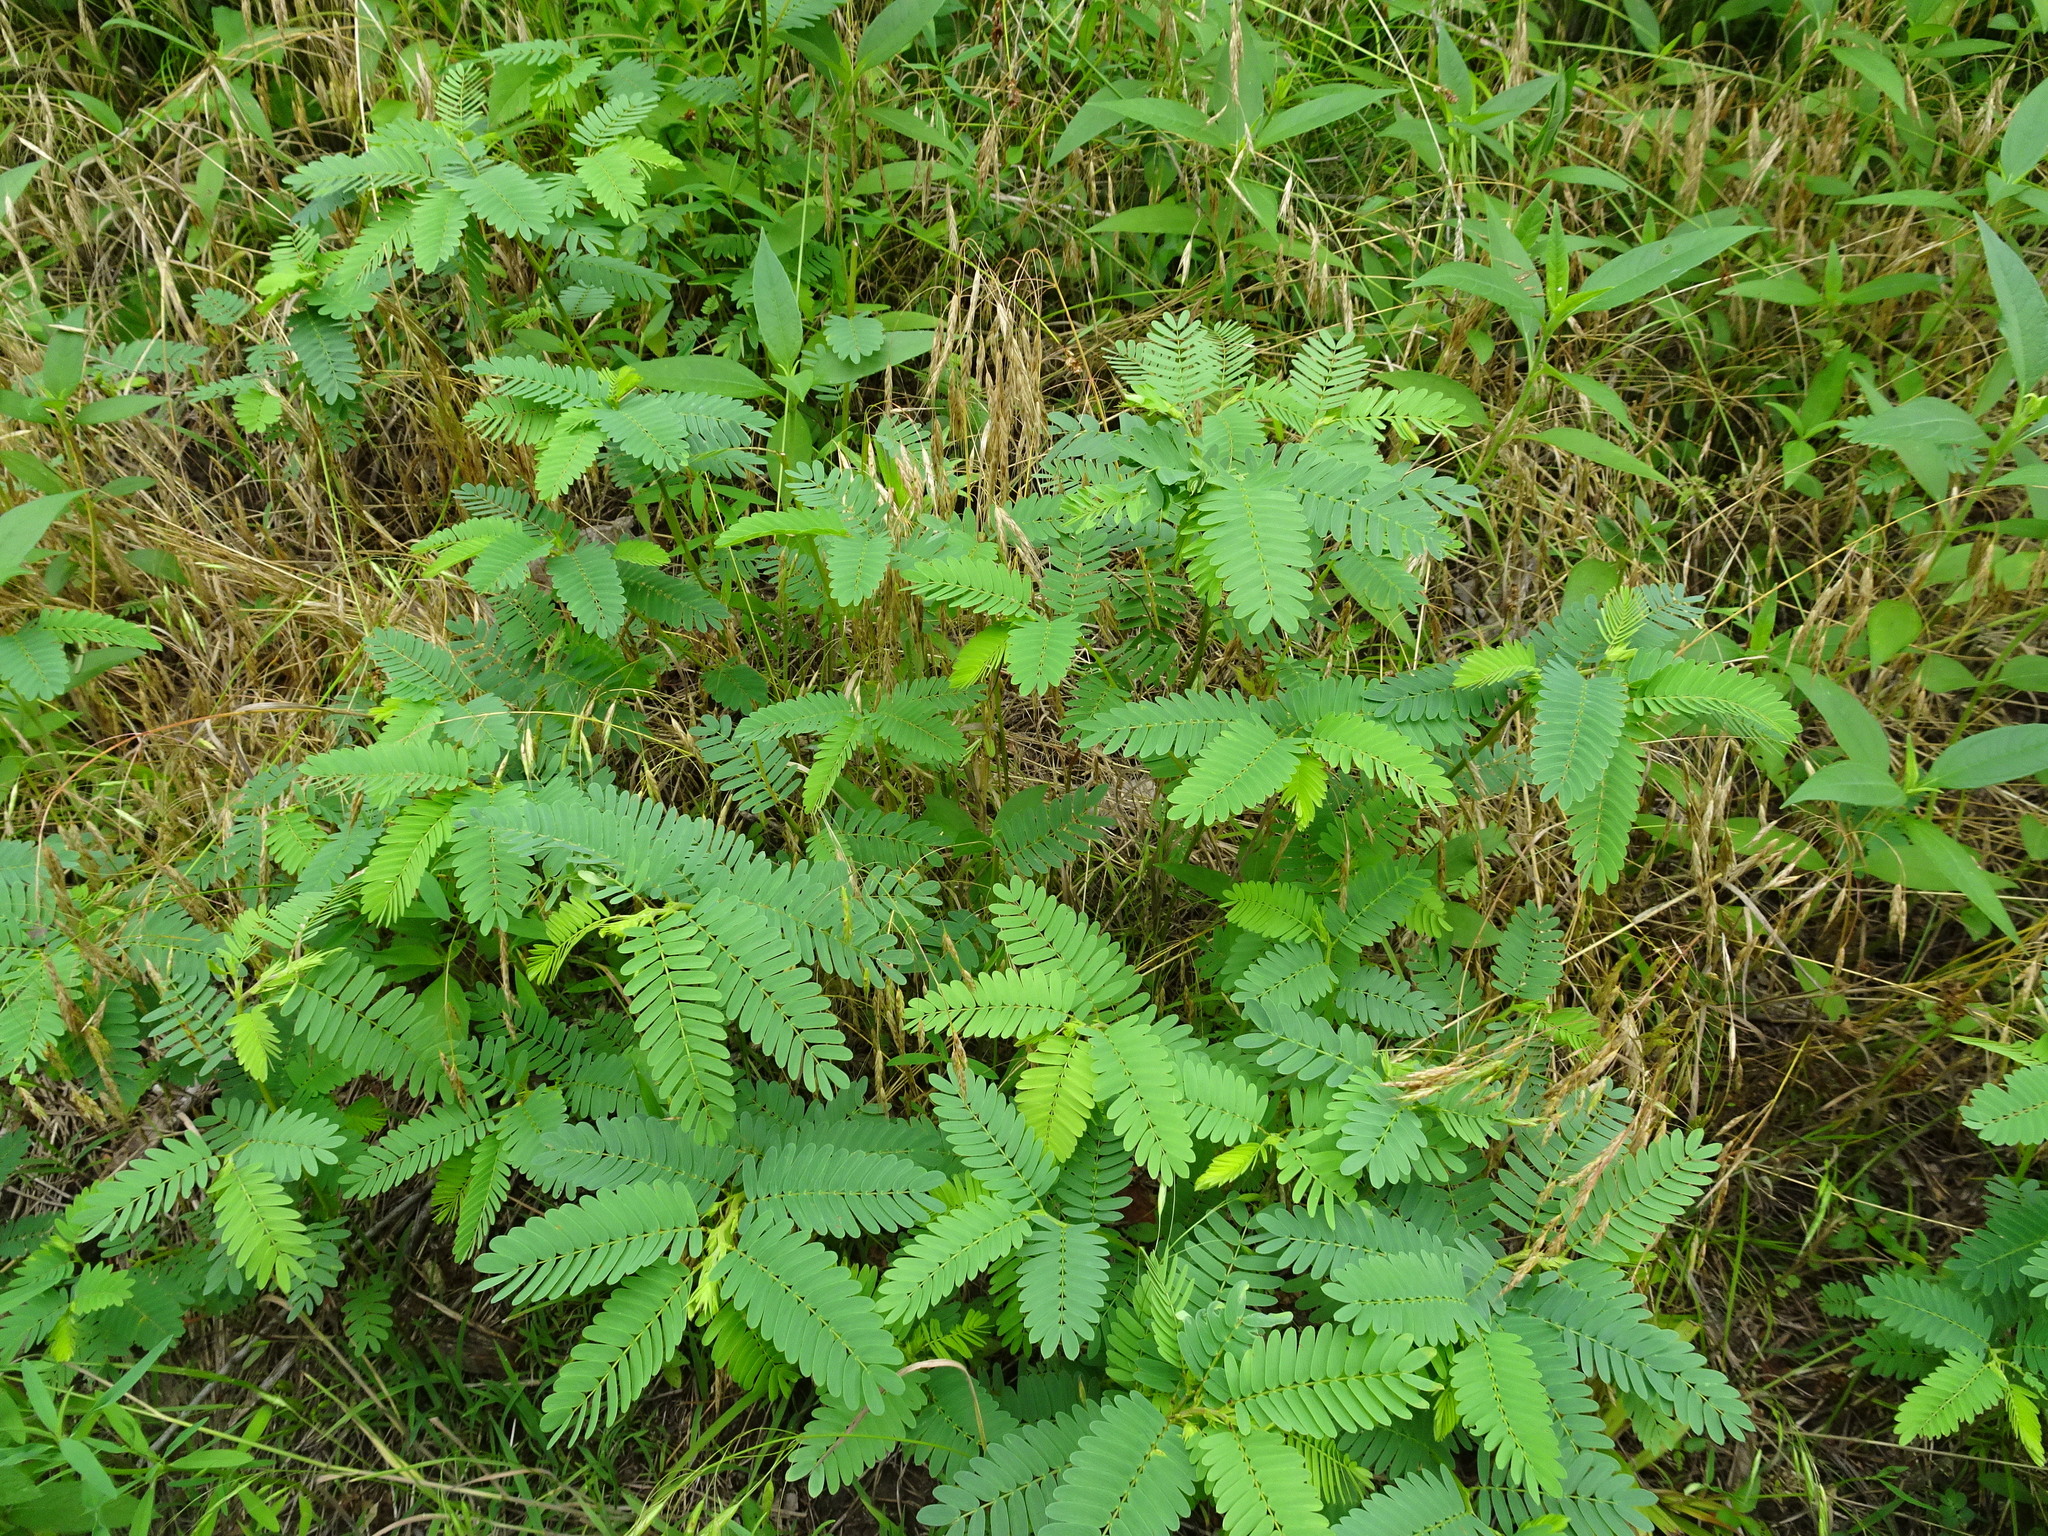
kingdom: Plantae
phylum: Tracheophyta
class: Magnoliopsida
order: Fabales
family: Fabaceae
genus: Chamaecrista
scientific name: Chamaecrista fasciculata
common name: Golden cassia
